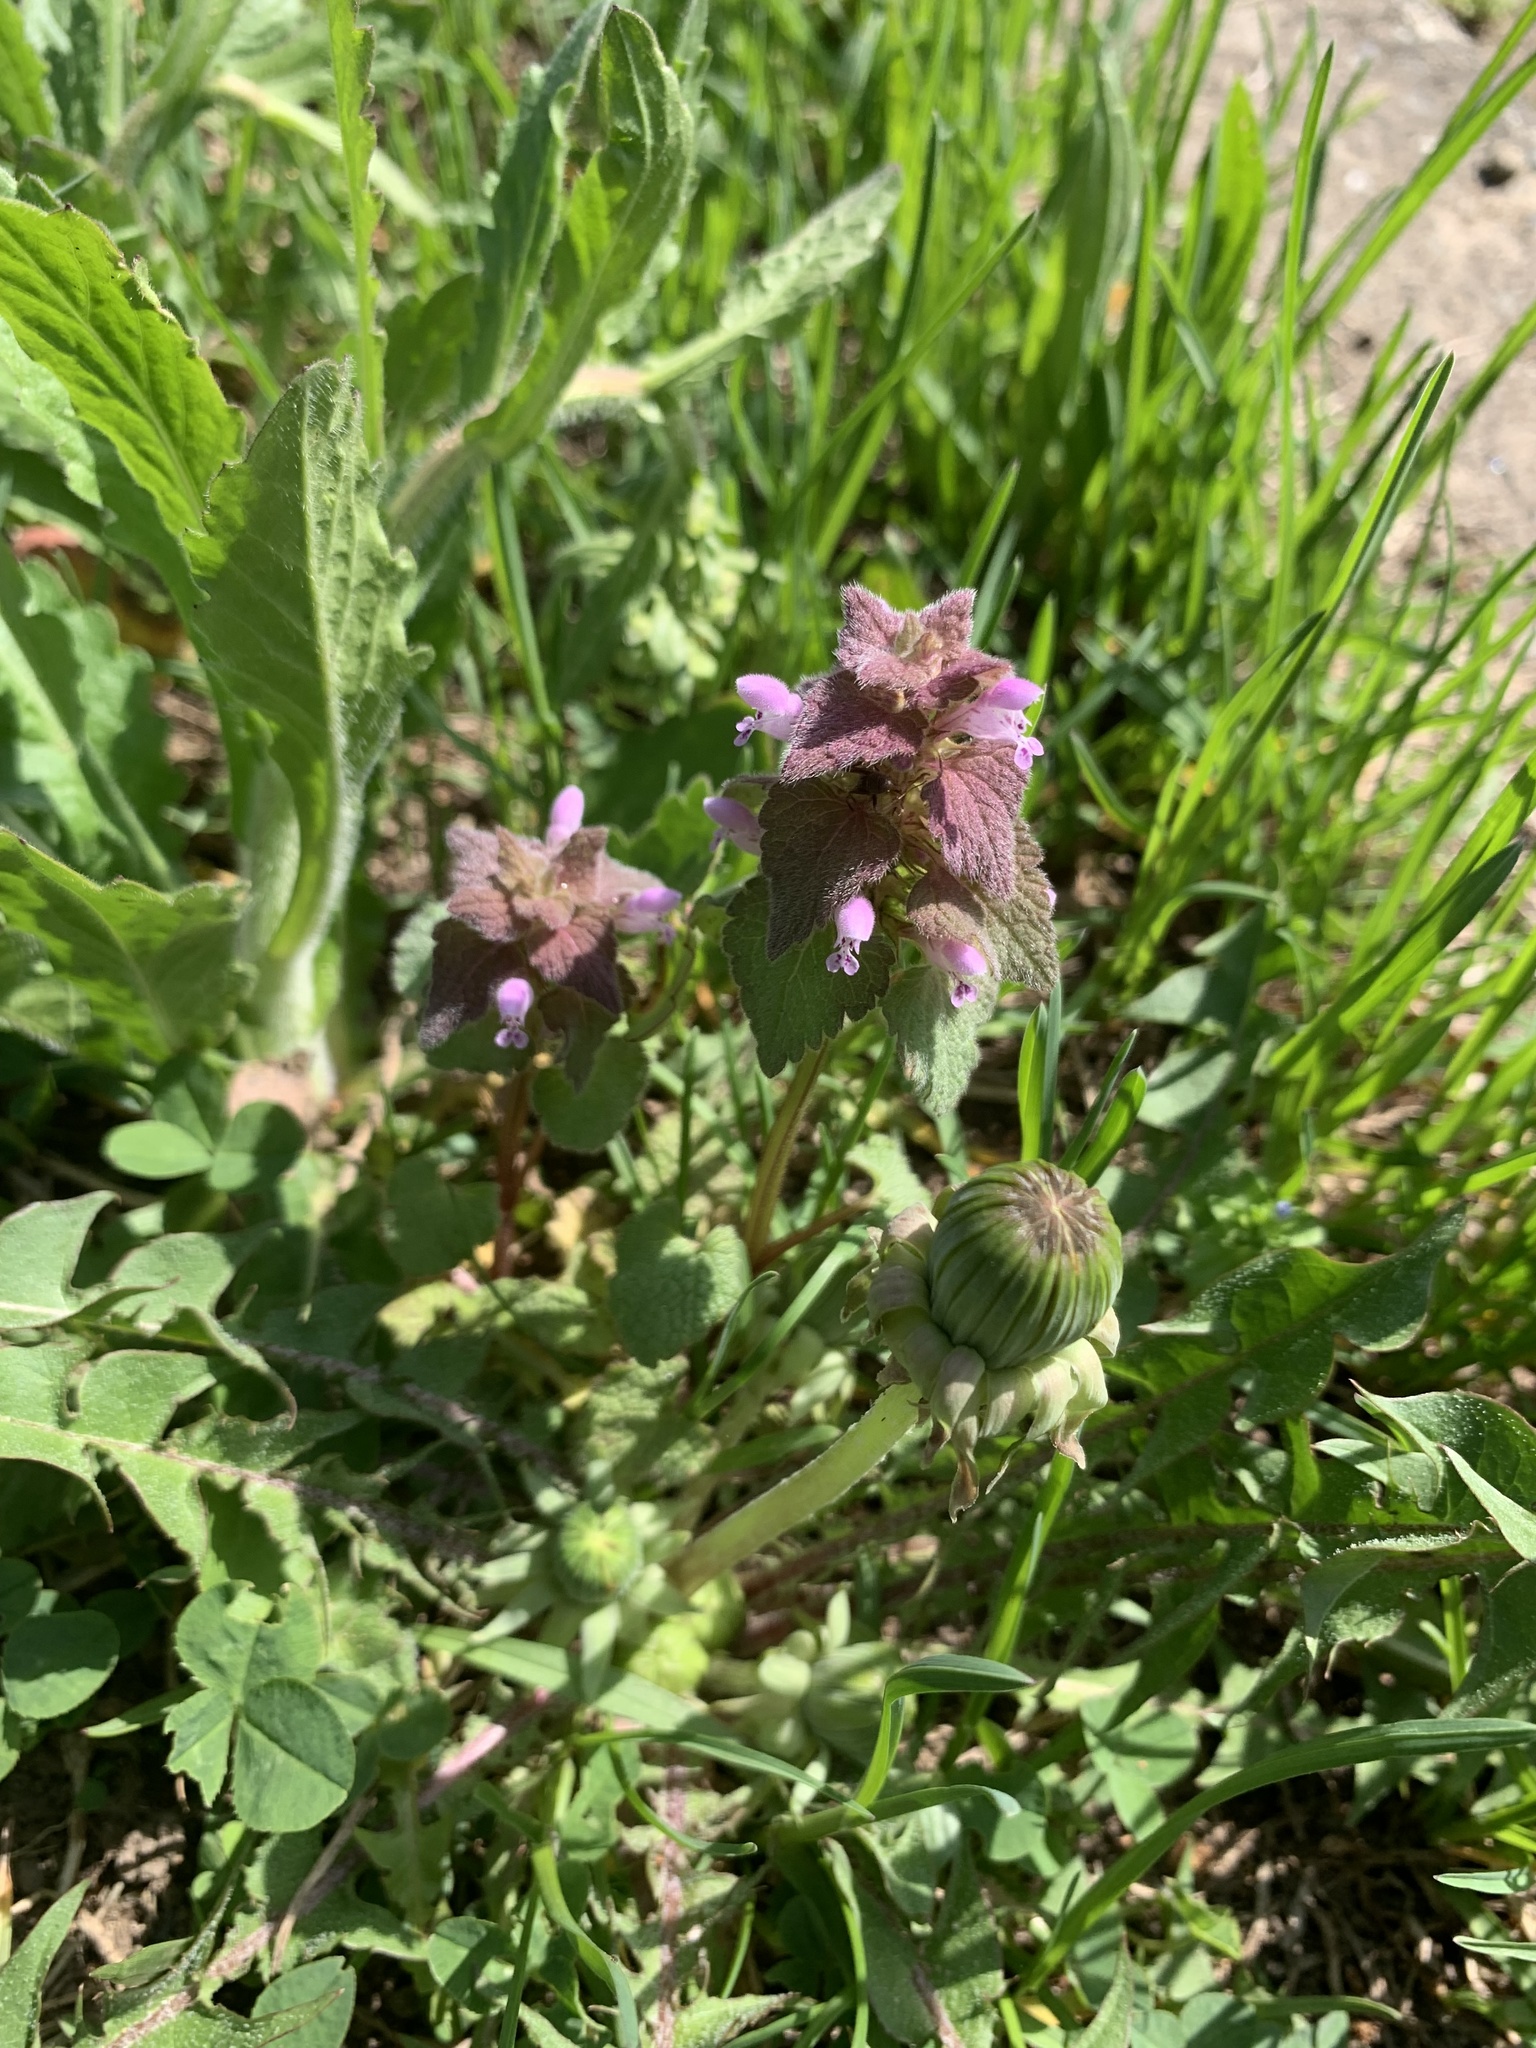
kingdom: Plantae
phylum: Tracheophyta
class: Magnoliopsida
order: Lamiales
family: Lamiaceae
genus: Lamium
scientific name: Lamium purpureum
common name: Red dead-nettle
